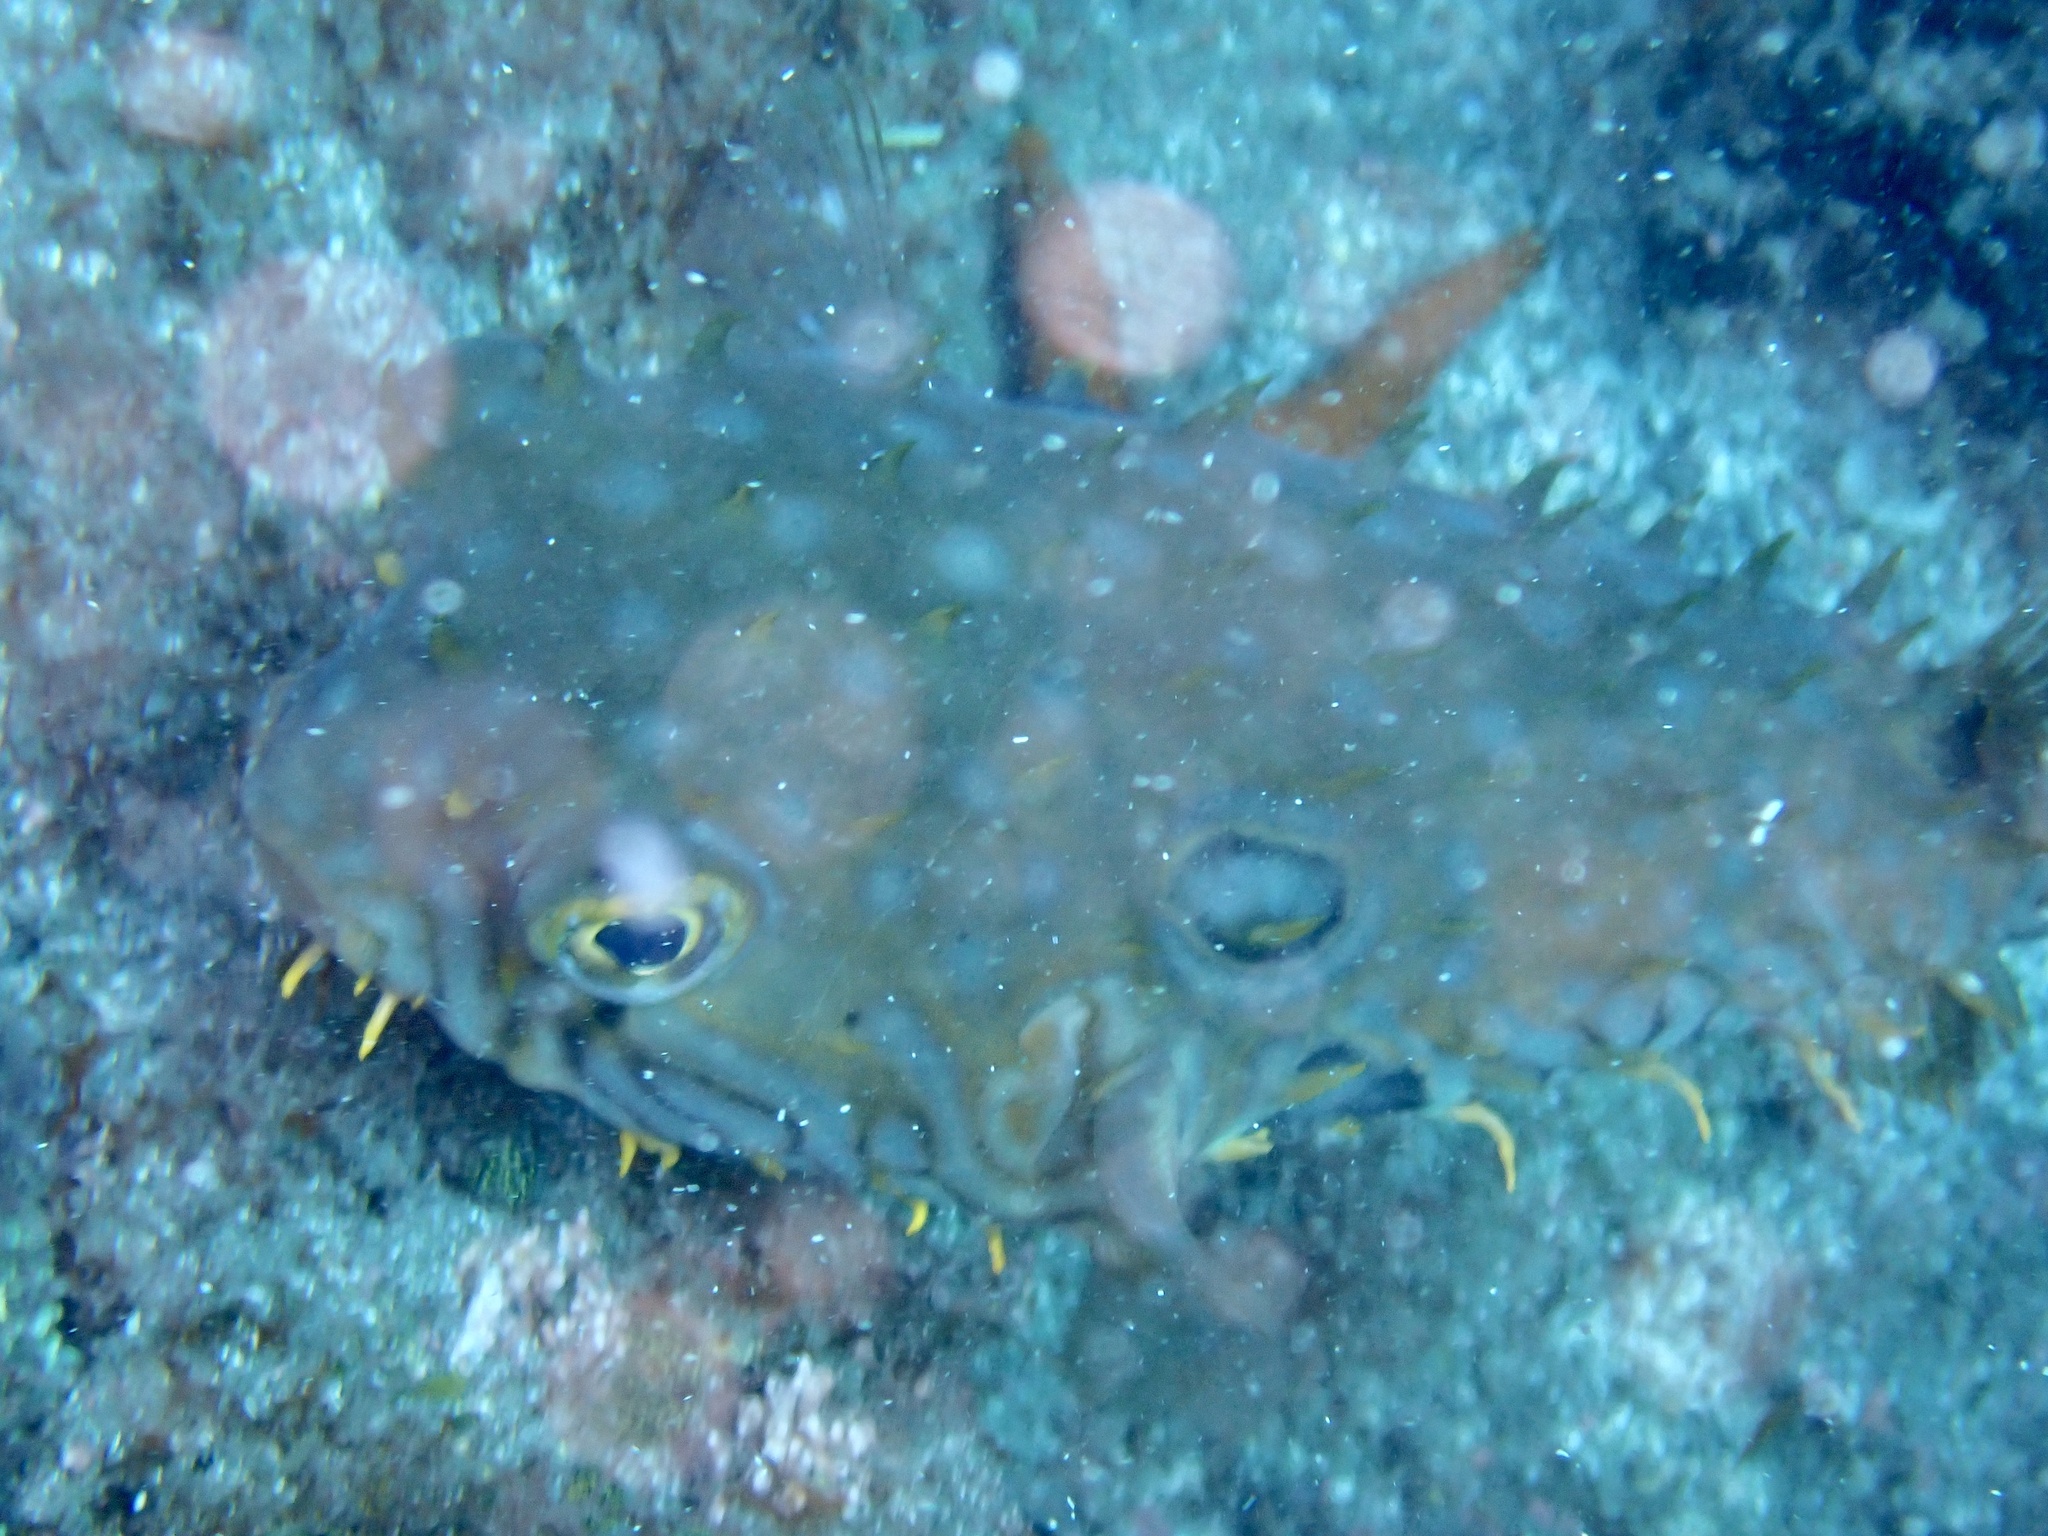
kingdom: Animalia
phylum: Chordata
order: Tetraodontiformes
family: Diodontidae
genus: Chilomycterus
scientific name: Chilomycterus spinosus
